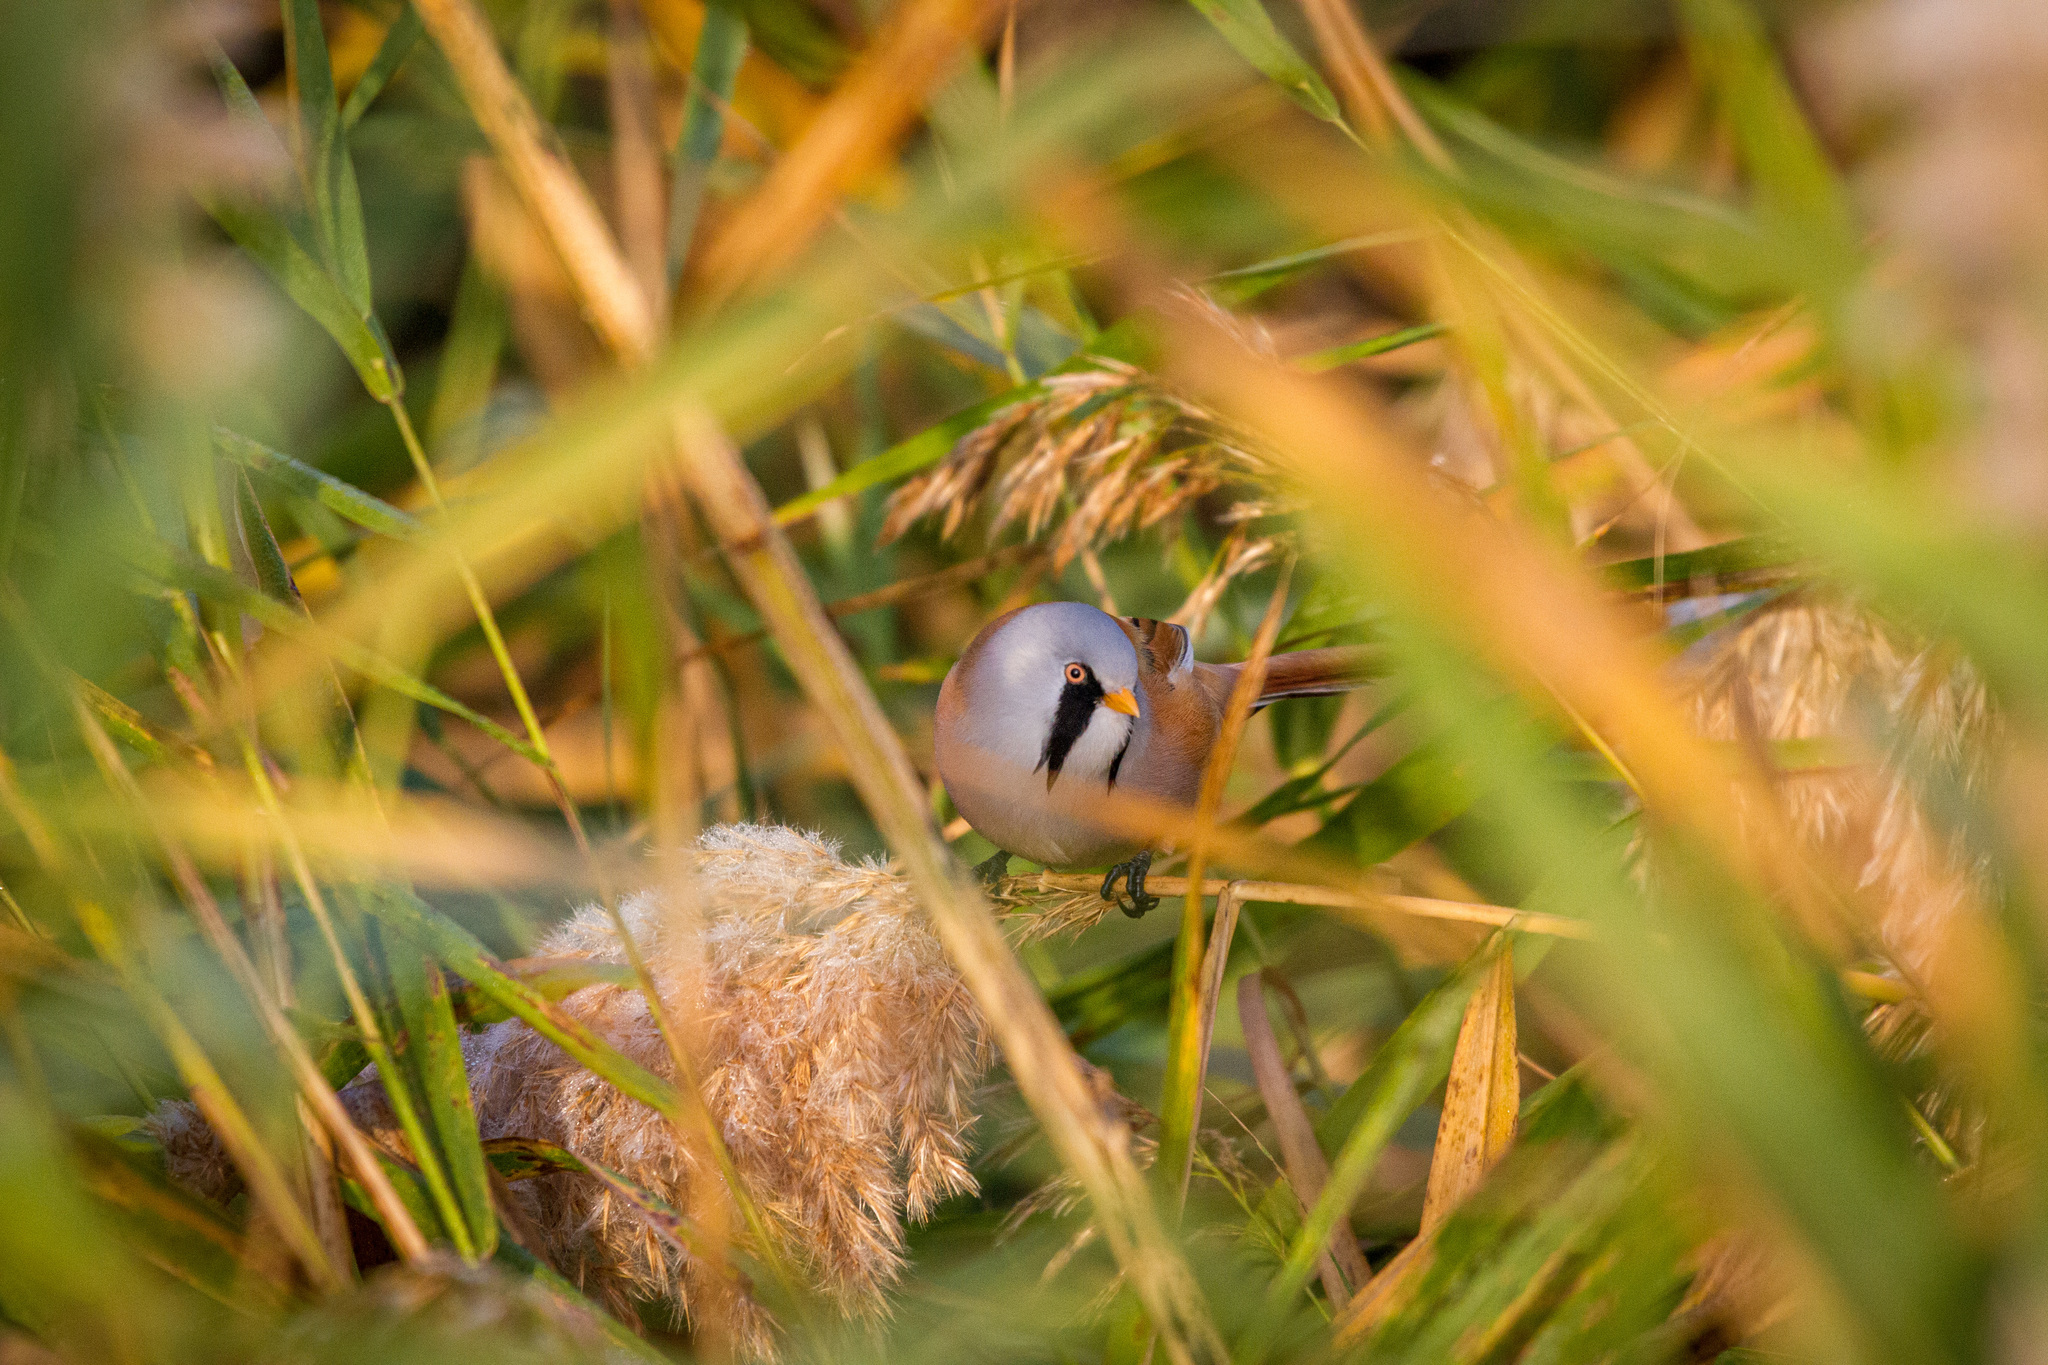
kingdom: Animalia
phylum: Chordata
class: Aves
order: Passeriformes
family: Panuridae
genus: Panurus
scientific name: Panurus biarmicus
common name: Bearded reedling
